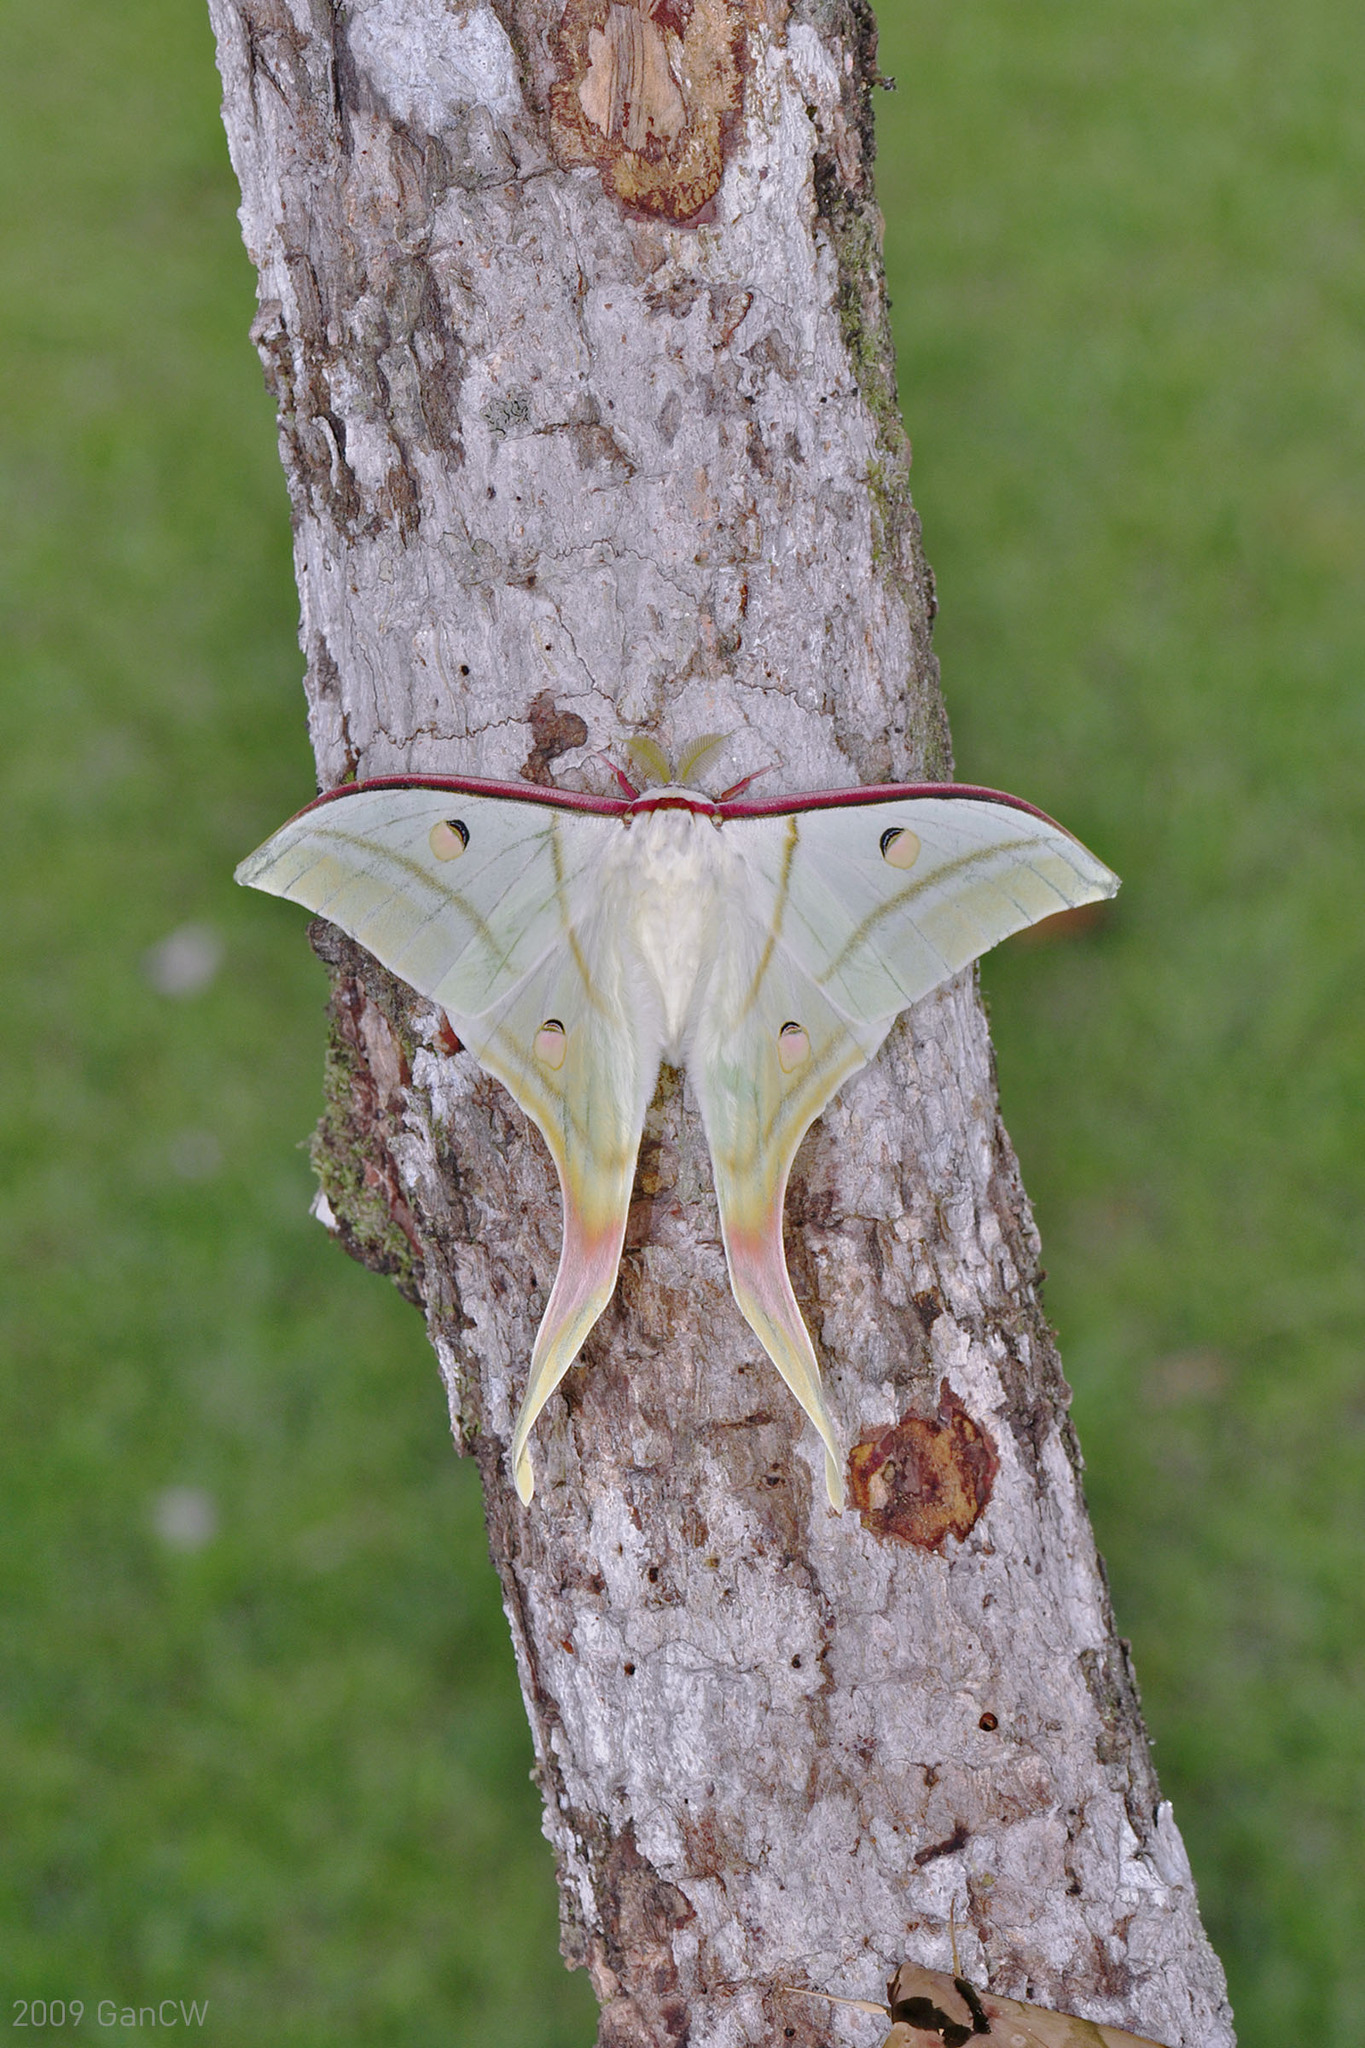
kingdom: Animalia
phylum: Arthropoda
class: Insecta
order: Lepidoptera
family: Saturniidae
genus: Actias
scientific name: Actias selene
